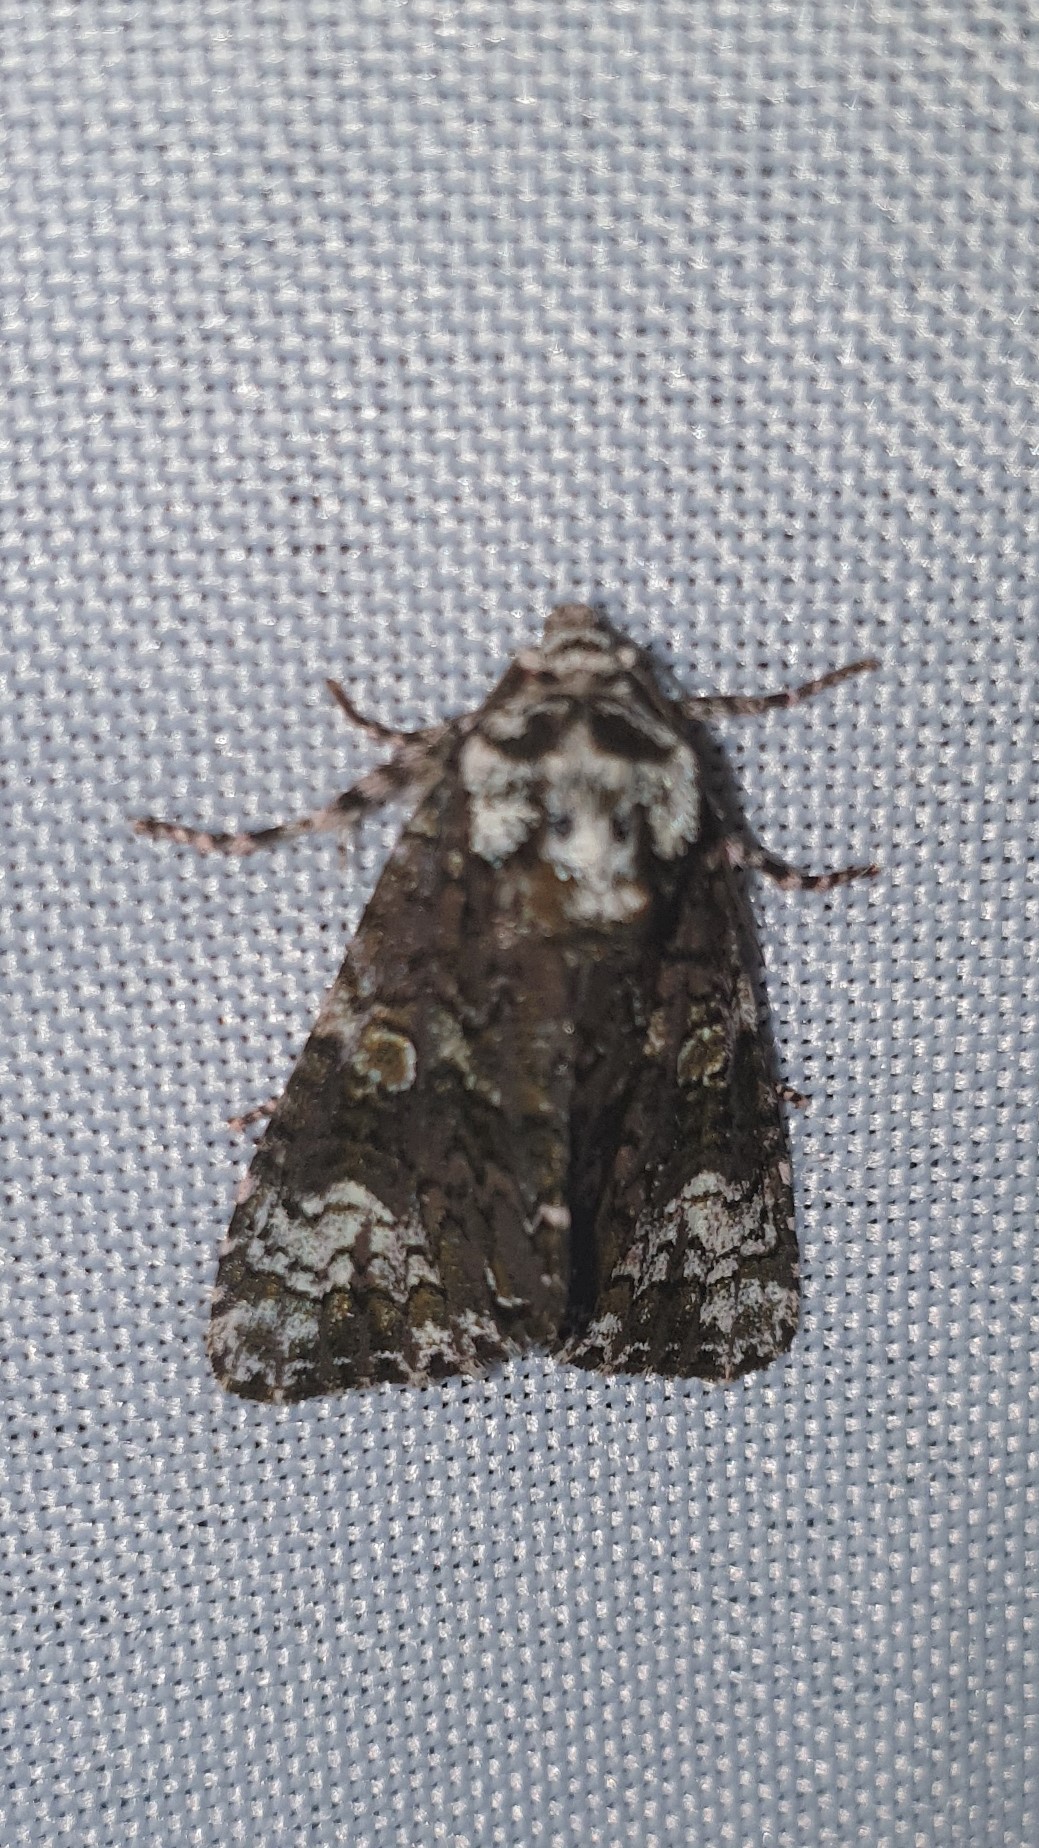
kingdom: Animalia
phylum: Arthropoda
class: Insecta
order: Lepidoptera
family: Noctuidae
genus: Craniophora
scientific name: Craniophora ligustri
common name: Coronet
